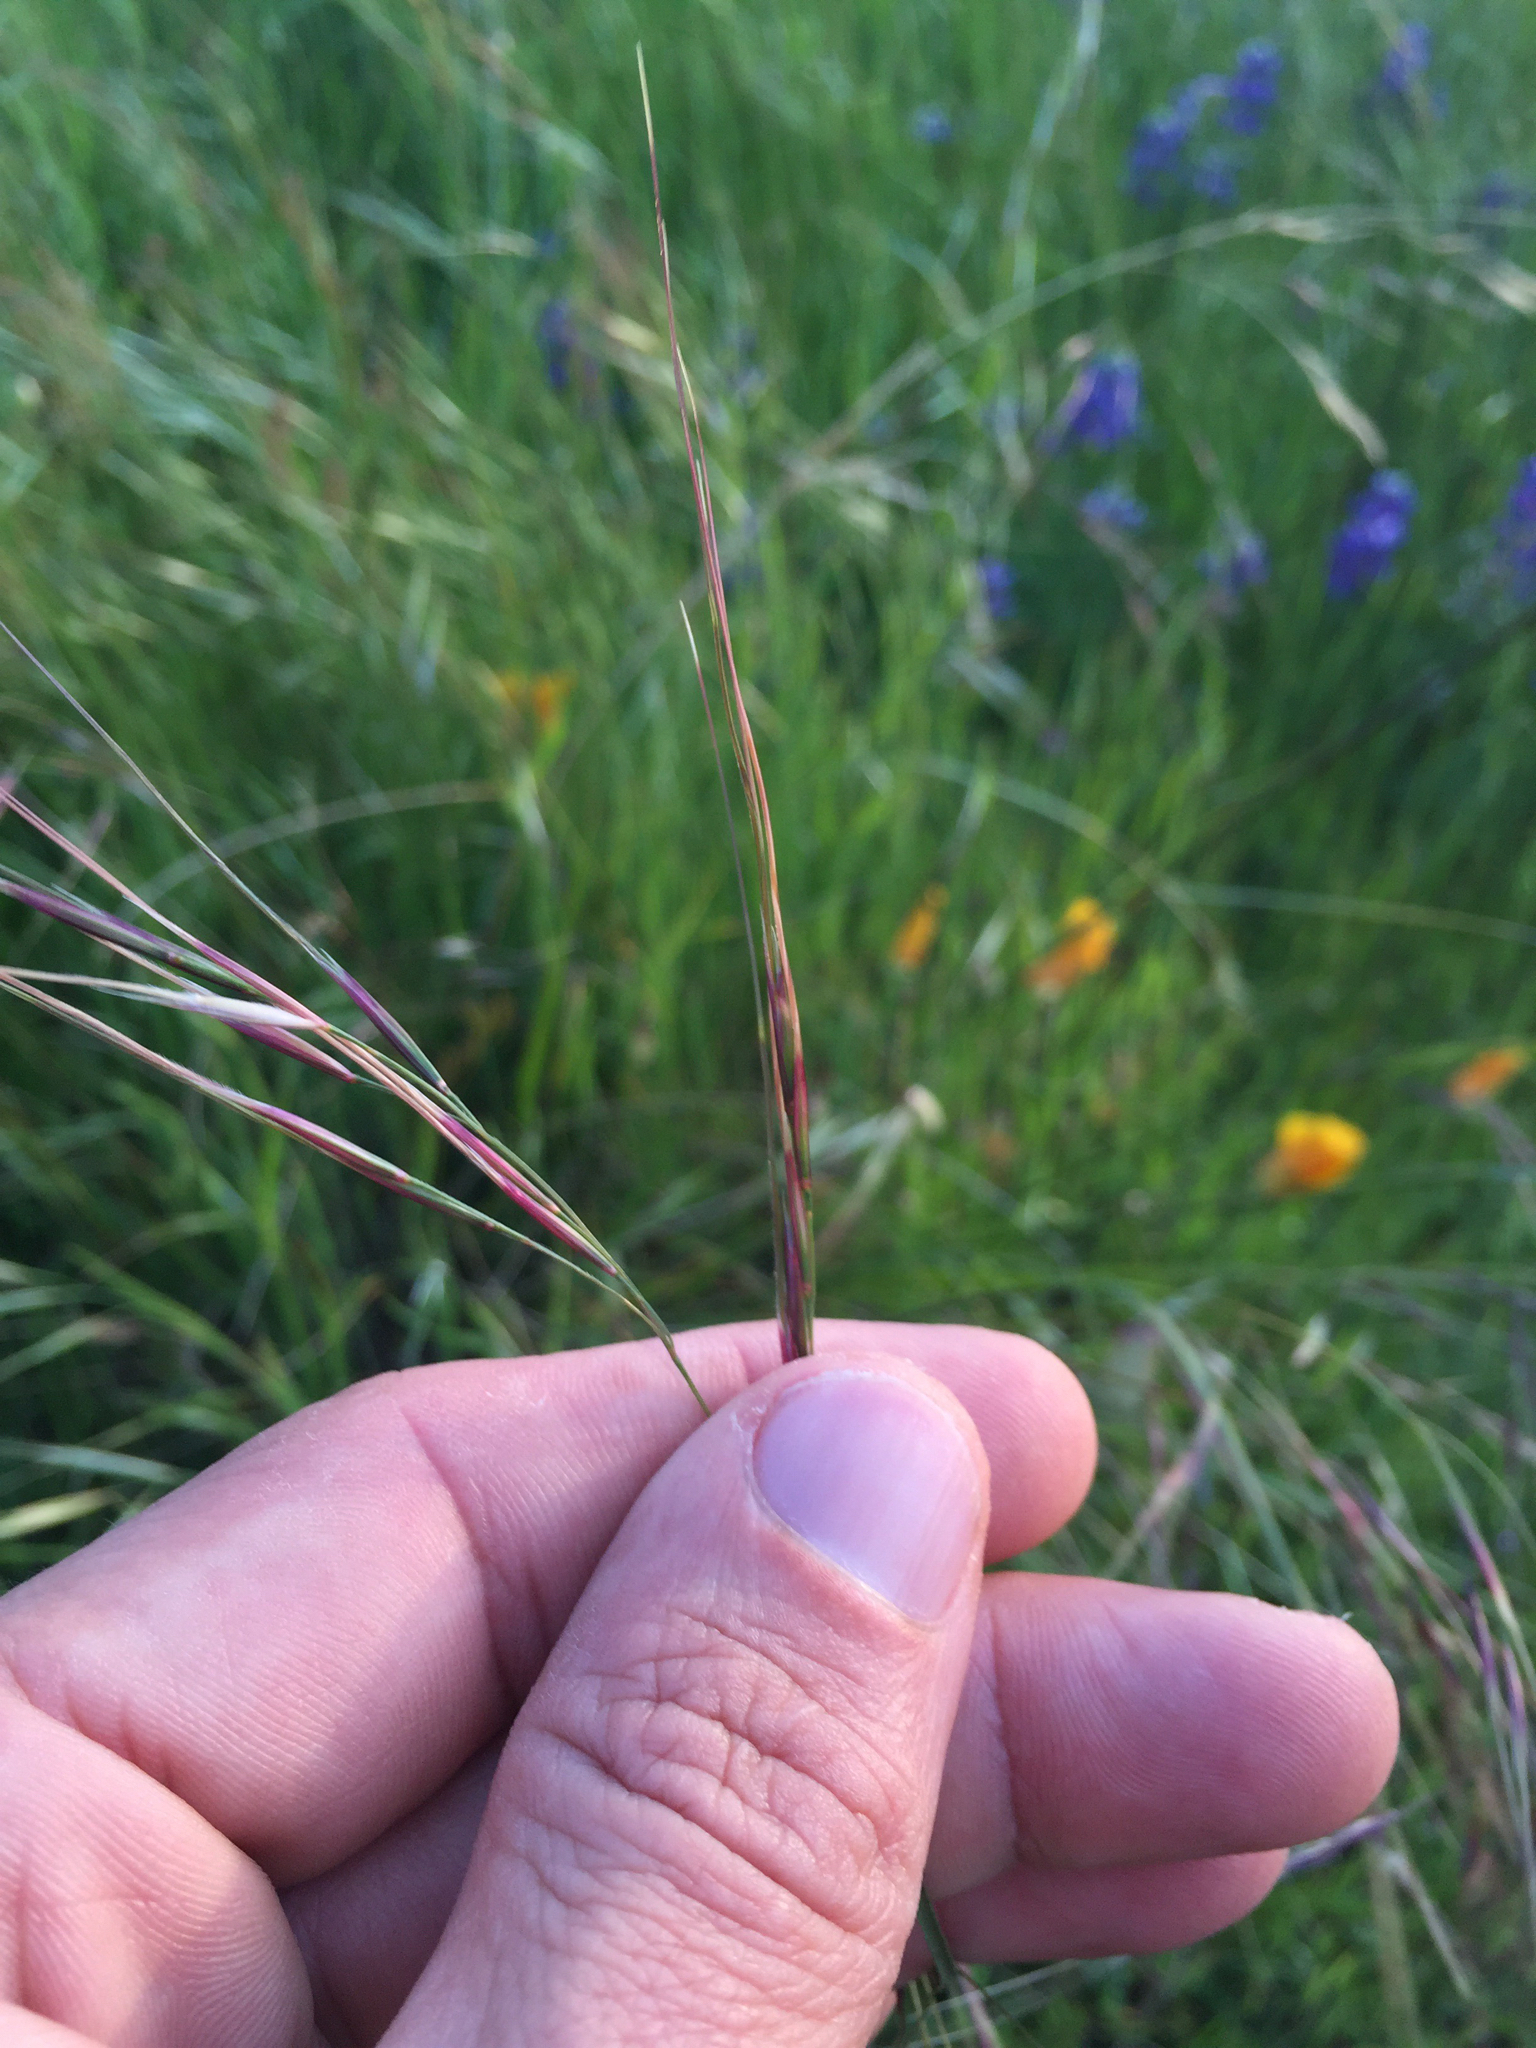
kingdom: Plantae
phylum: Tracheophyta
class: Liliopsida
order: Poales
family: Poaceae
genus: Nassella
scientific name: Nassella pulchra
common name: Purple needlegrass
